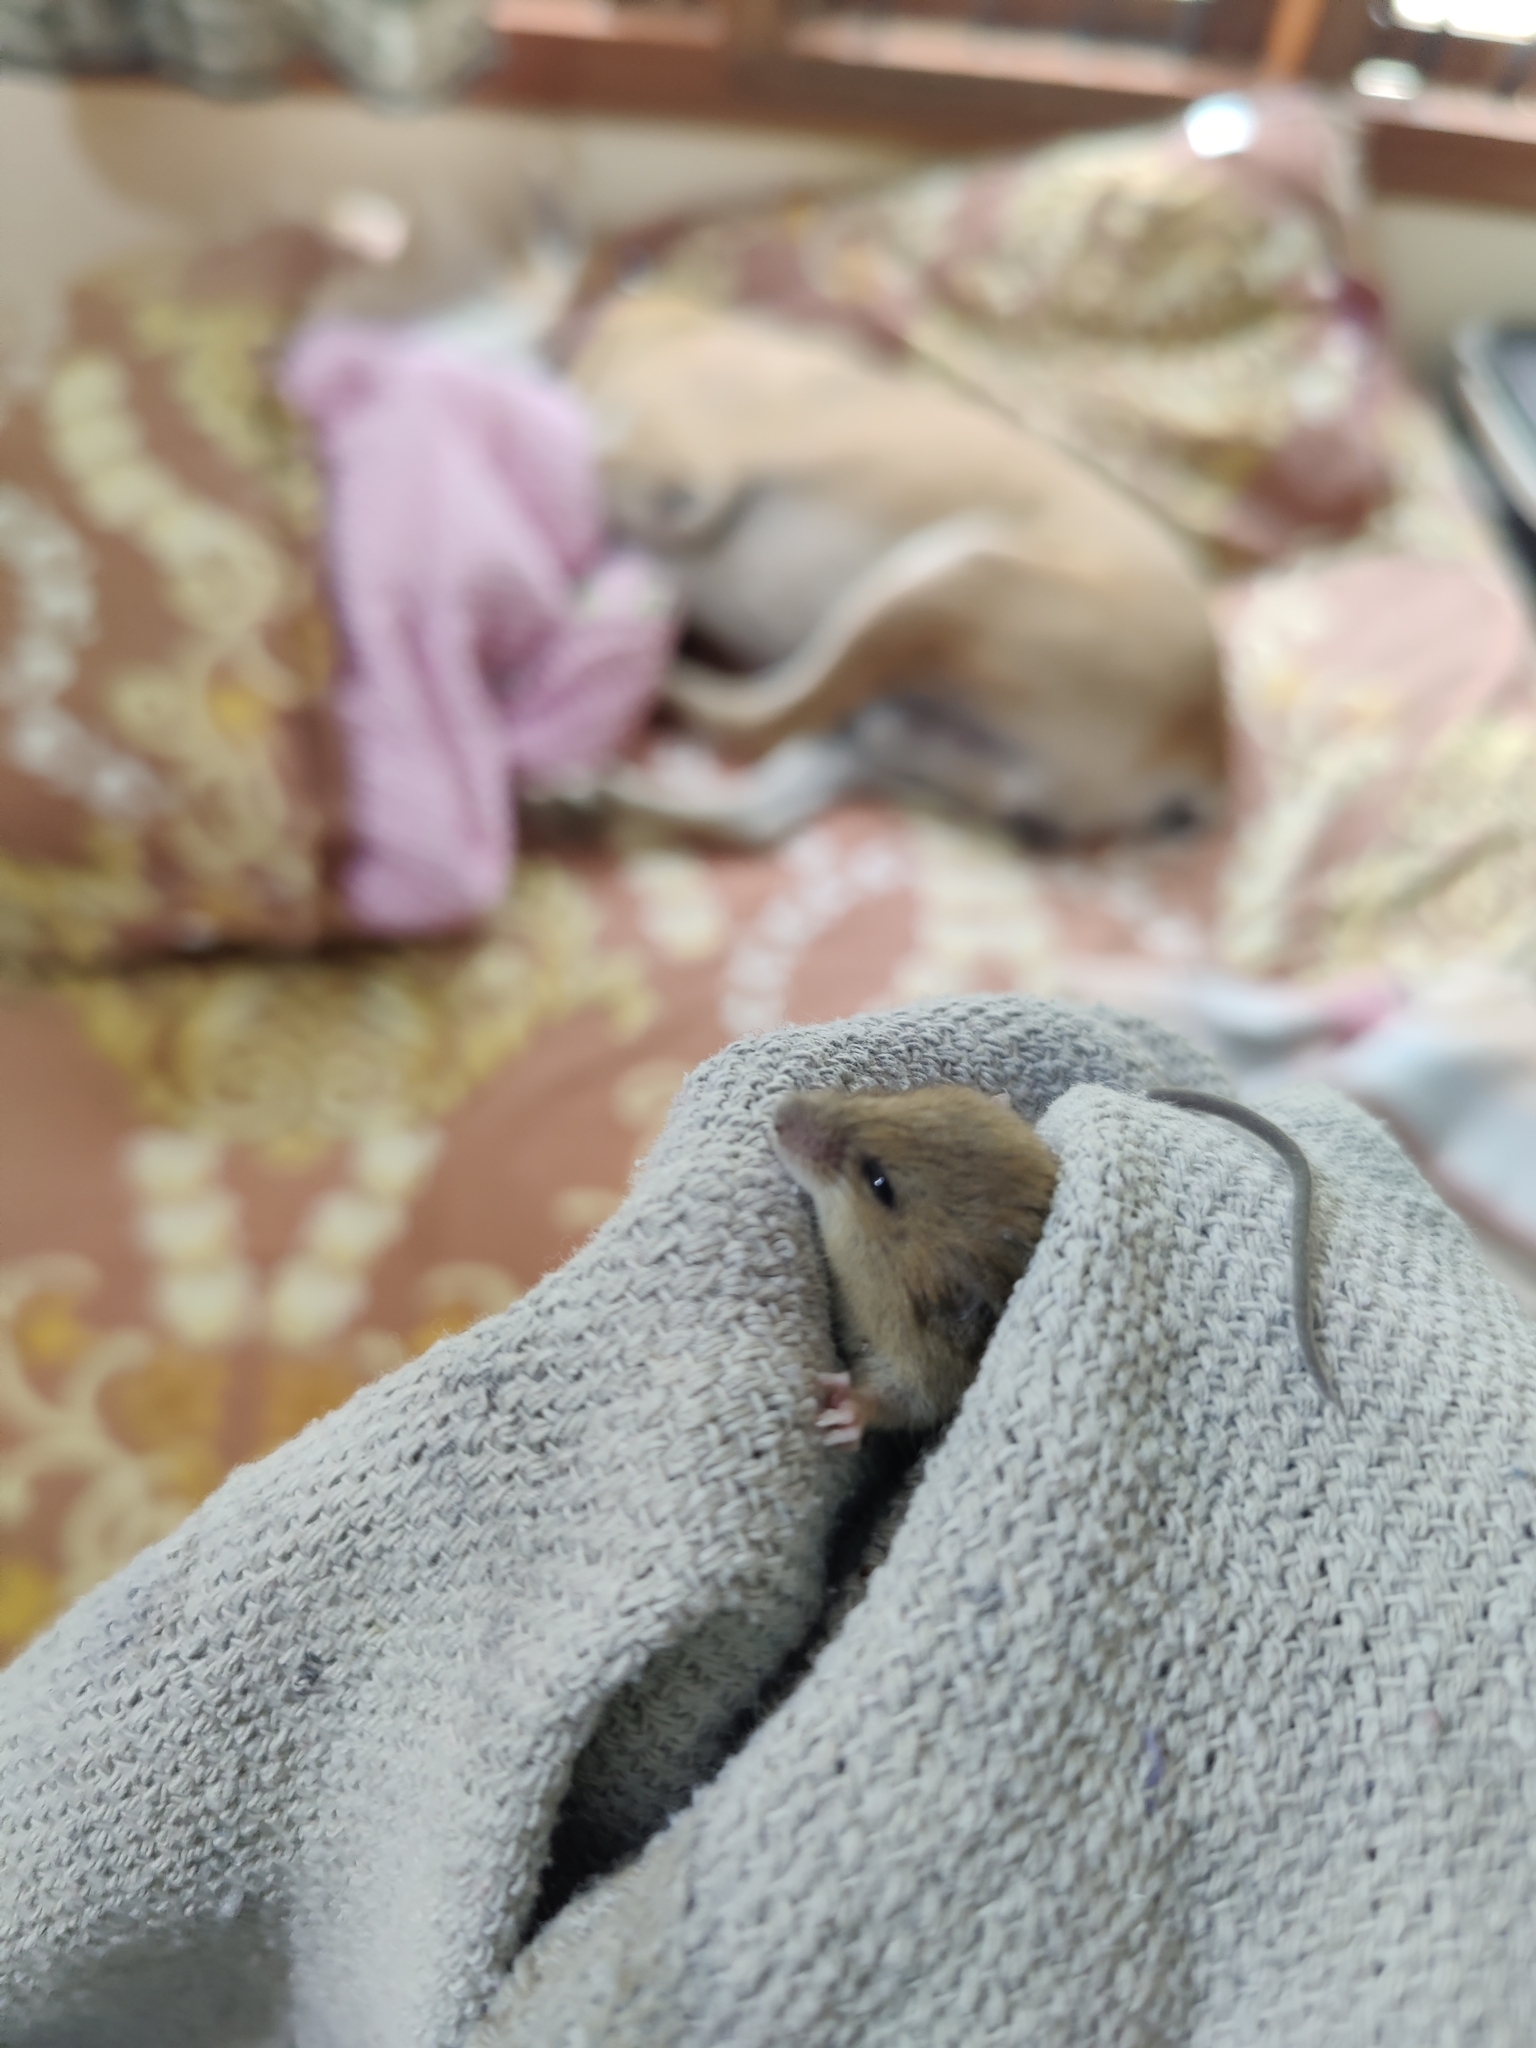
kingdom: Animalia
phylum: Chordata
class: Mammalia
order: Rodentia
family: Muridae
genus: Vandeleuria
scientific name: Vandeleuria oleracea
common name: Indomalayan vandeleuria
